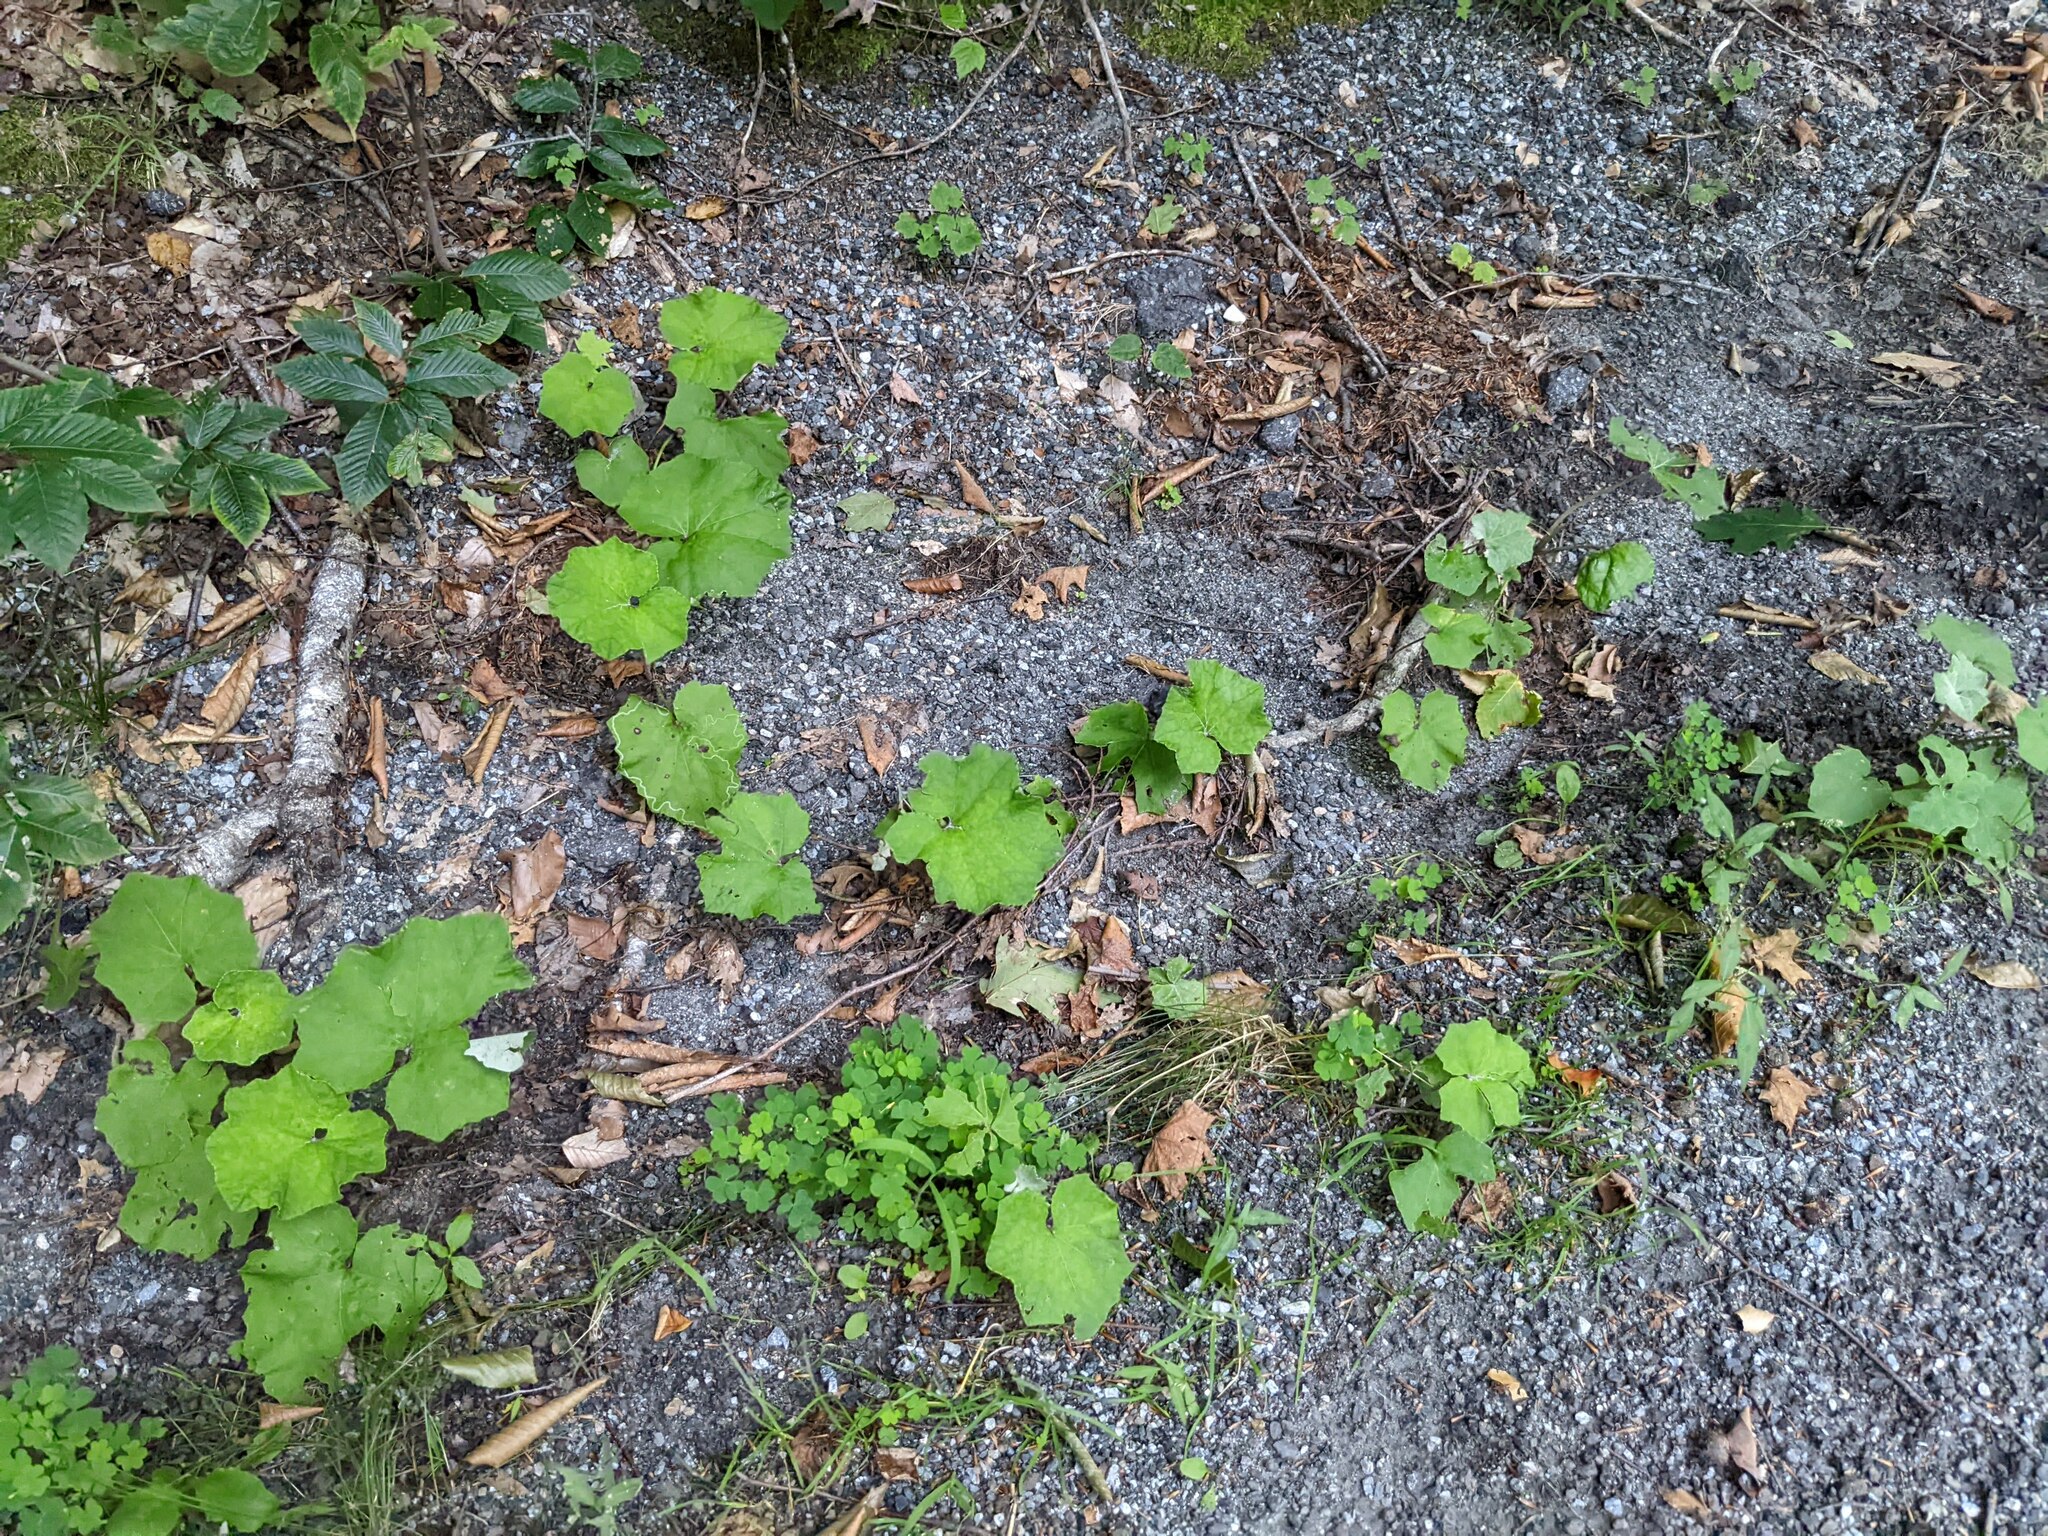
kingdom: Plantae
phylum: Tracheophyta
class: Magnoliopsida
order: Asterales
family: Asteraceae
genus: Tussilago
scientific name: Tussilago farfara
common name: Coltsfoot
